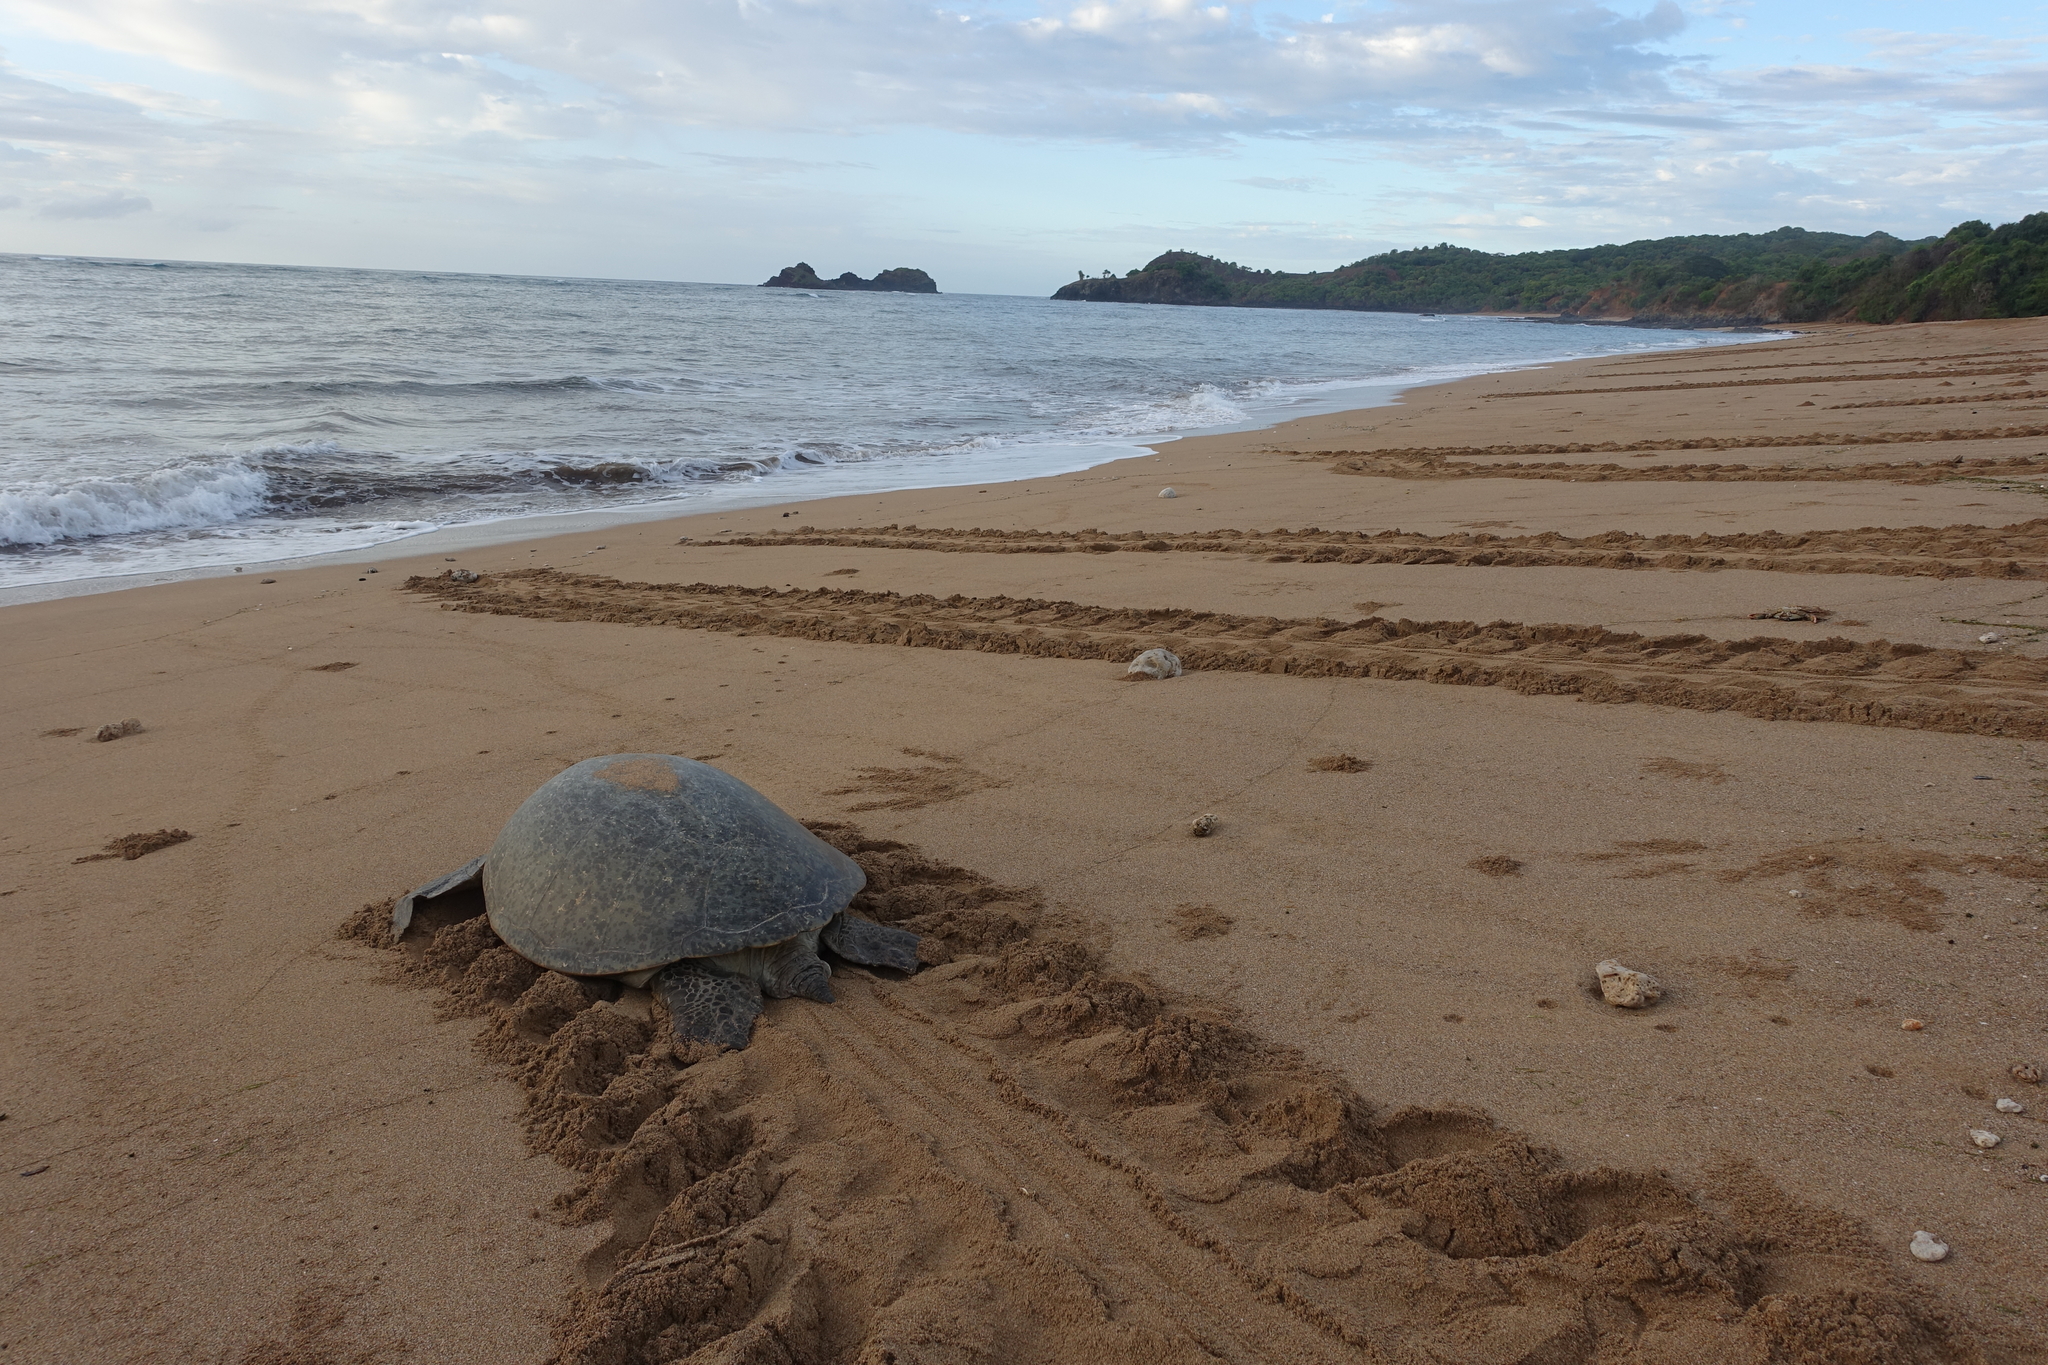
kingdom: Animalia
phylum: Chordata
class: Testudines
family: Cheloniidae
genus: Chelonia
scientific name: Chelonia mydas
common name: Green turtle
